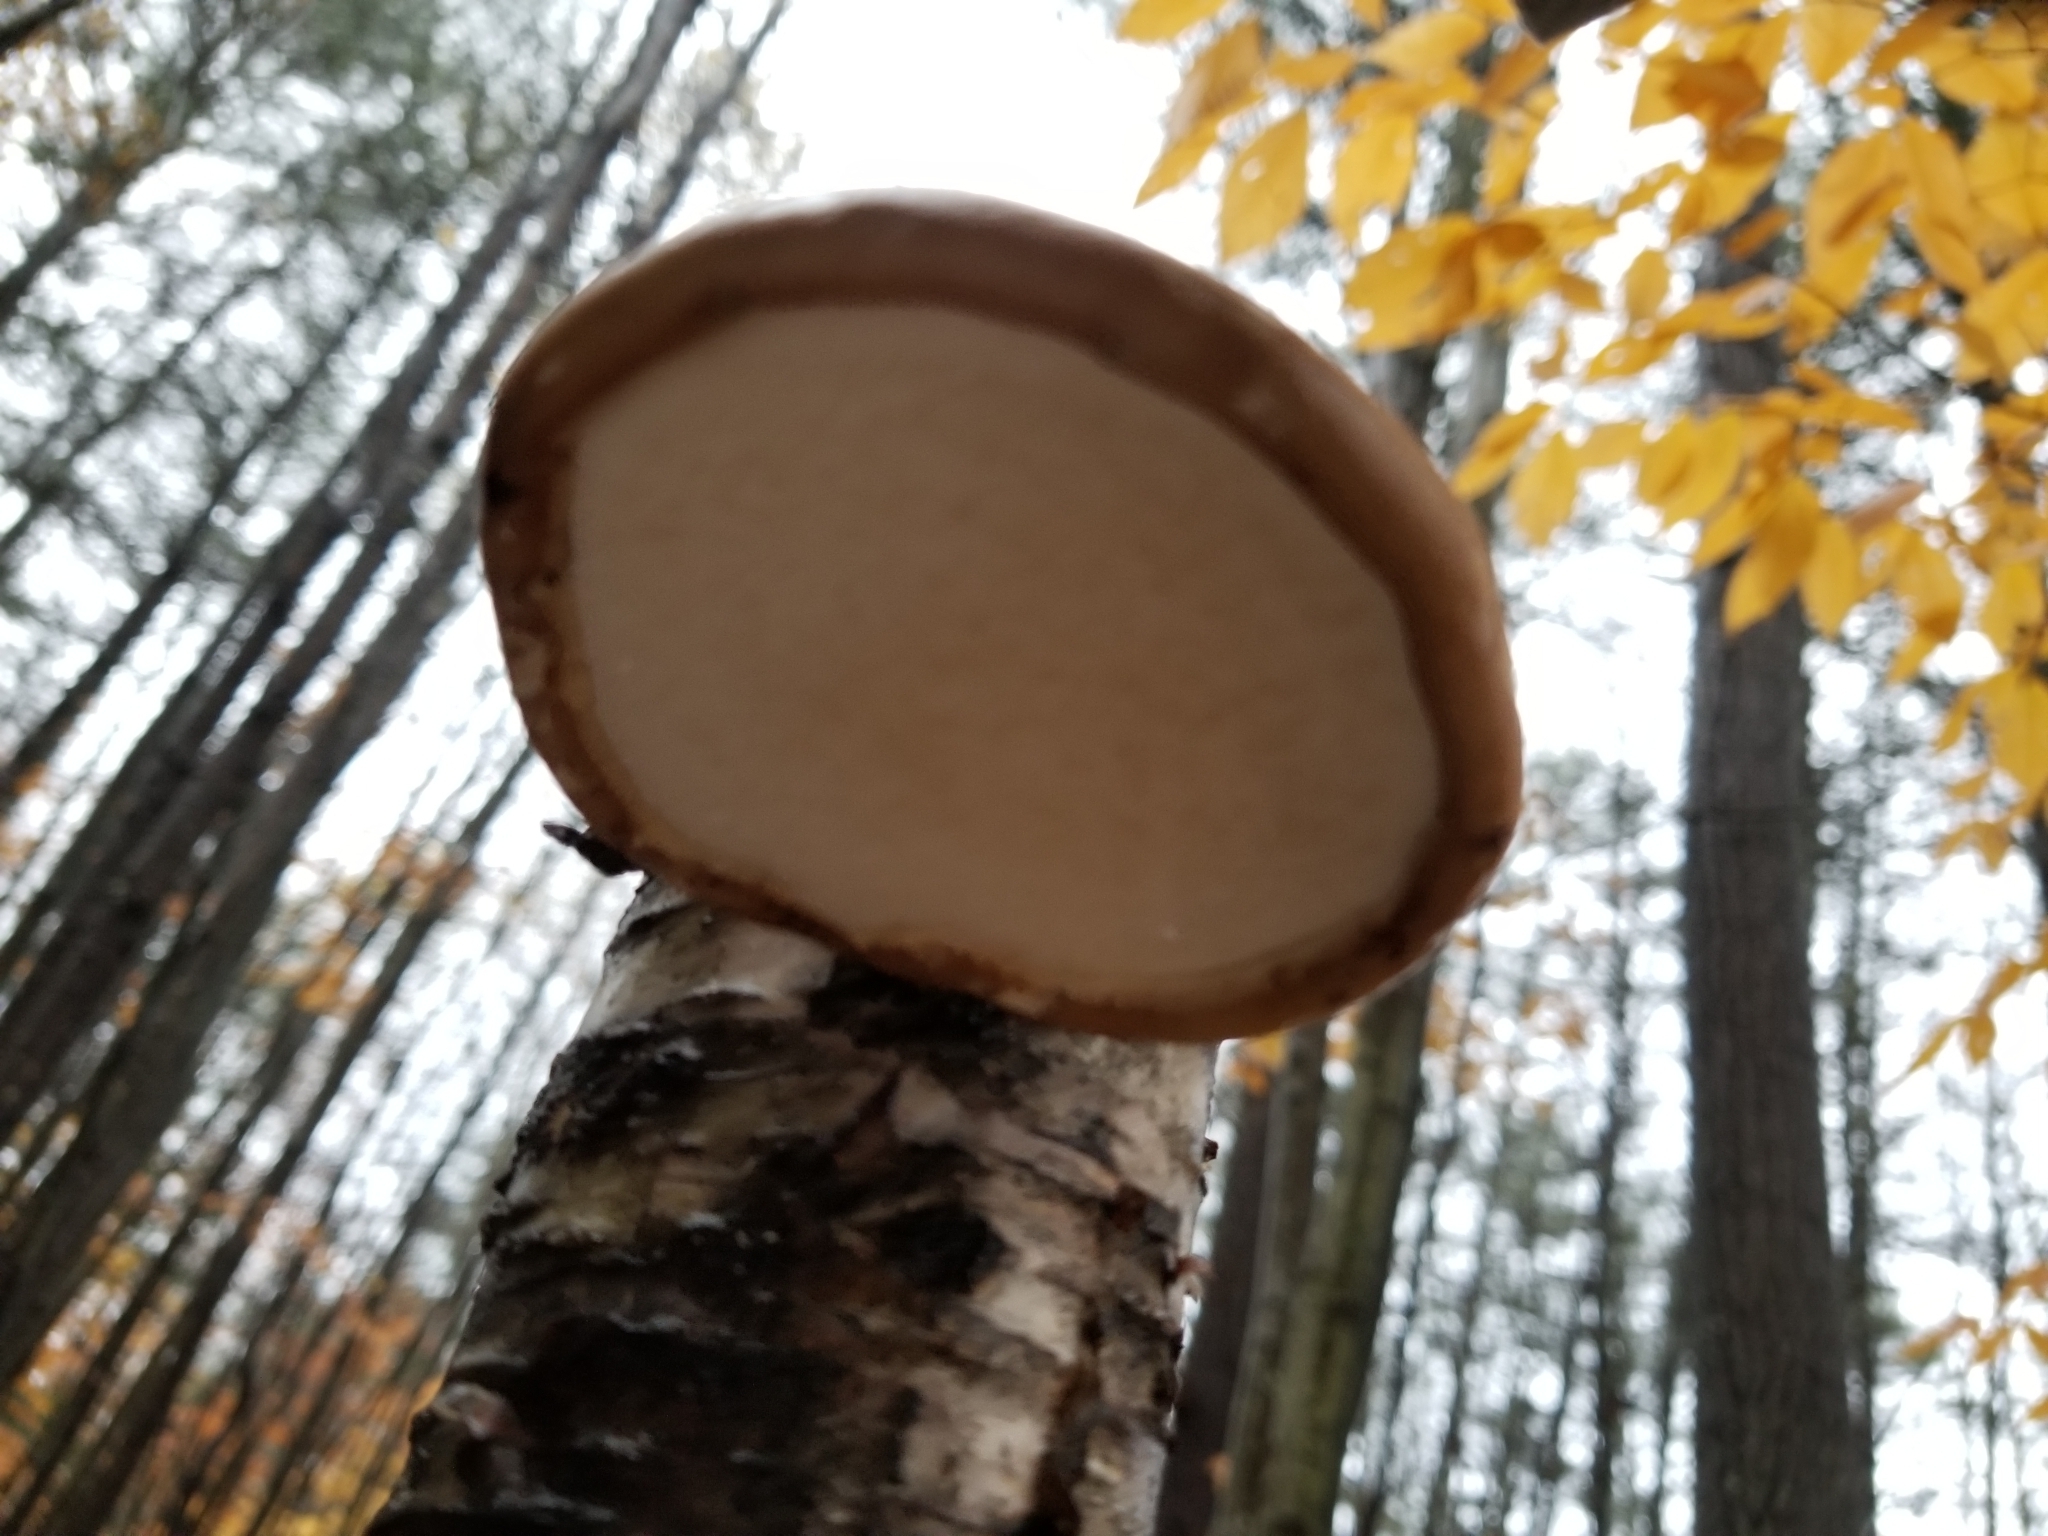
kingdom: Fungi
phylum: Basidiomycota
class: Agaricomycetes
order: Polyporales
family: Fomitopsidaceae
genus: Fomitopsis
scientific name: Fomitopsis betulina
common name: Birch polypore
